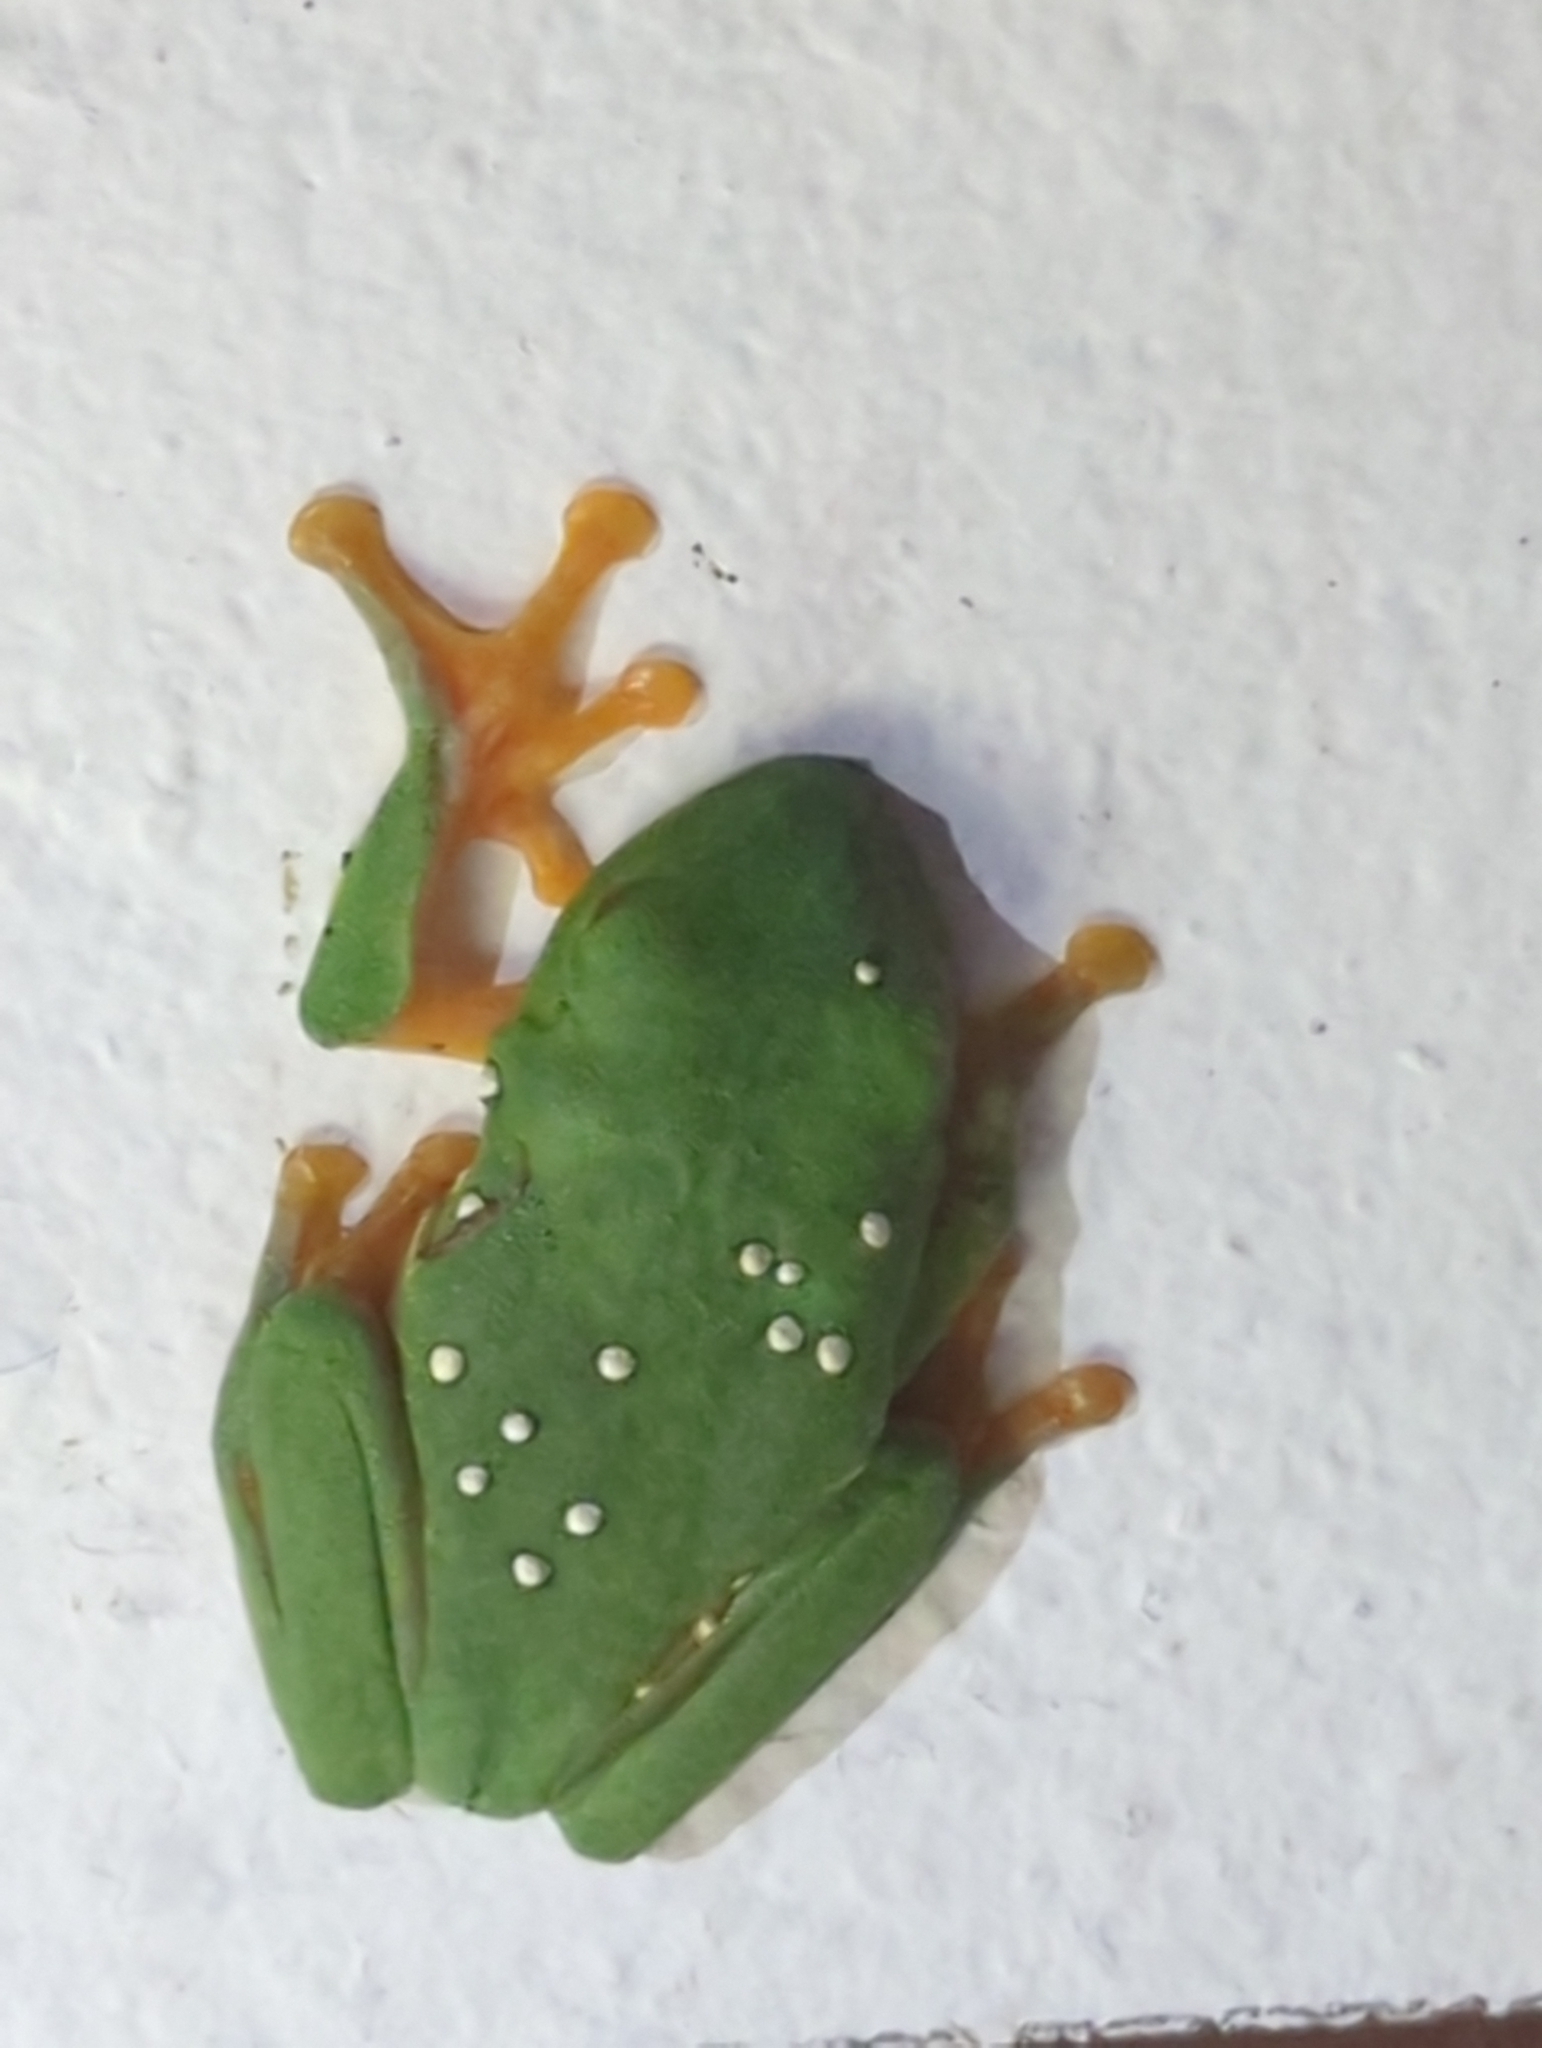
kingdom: Animalia
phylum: Chordata
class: Amphibia
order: Anura
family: Phyllomedusidae
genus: Agalychnis
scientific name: Agalychnis callidryas
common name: Red-eyed treefrog
